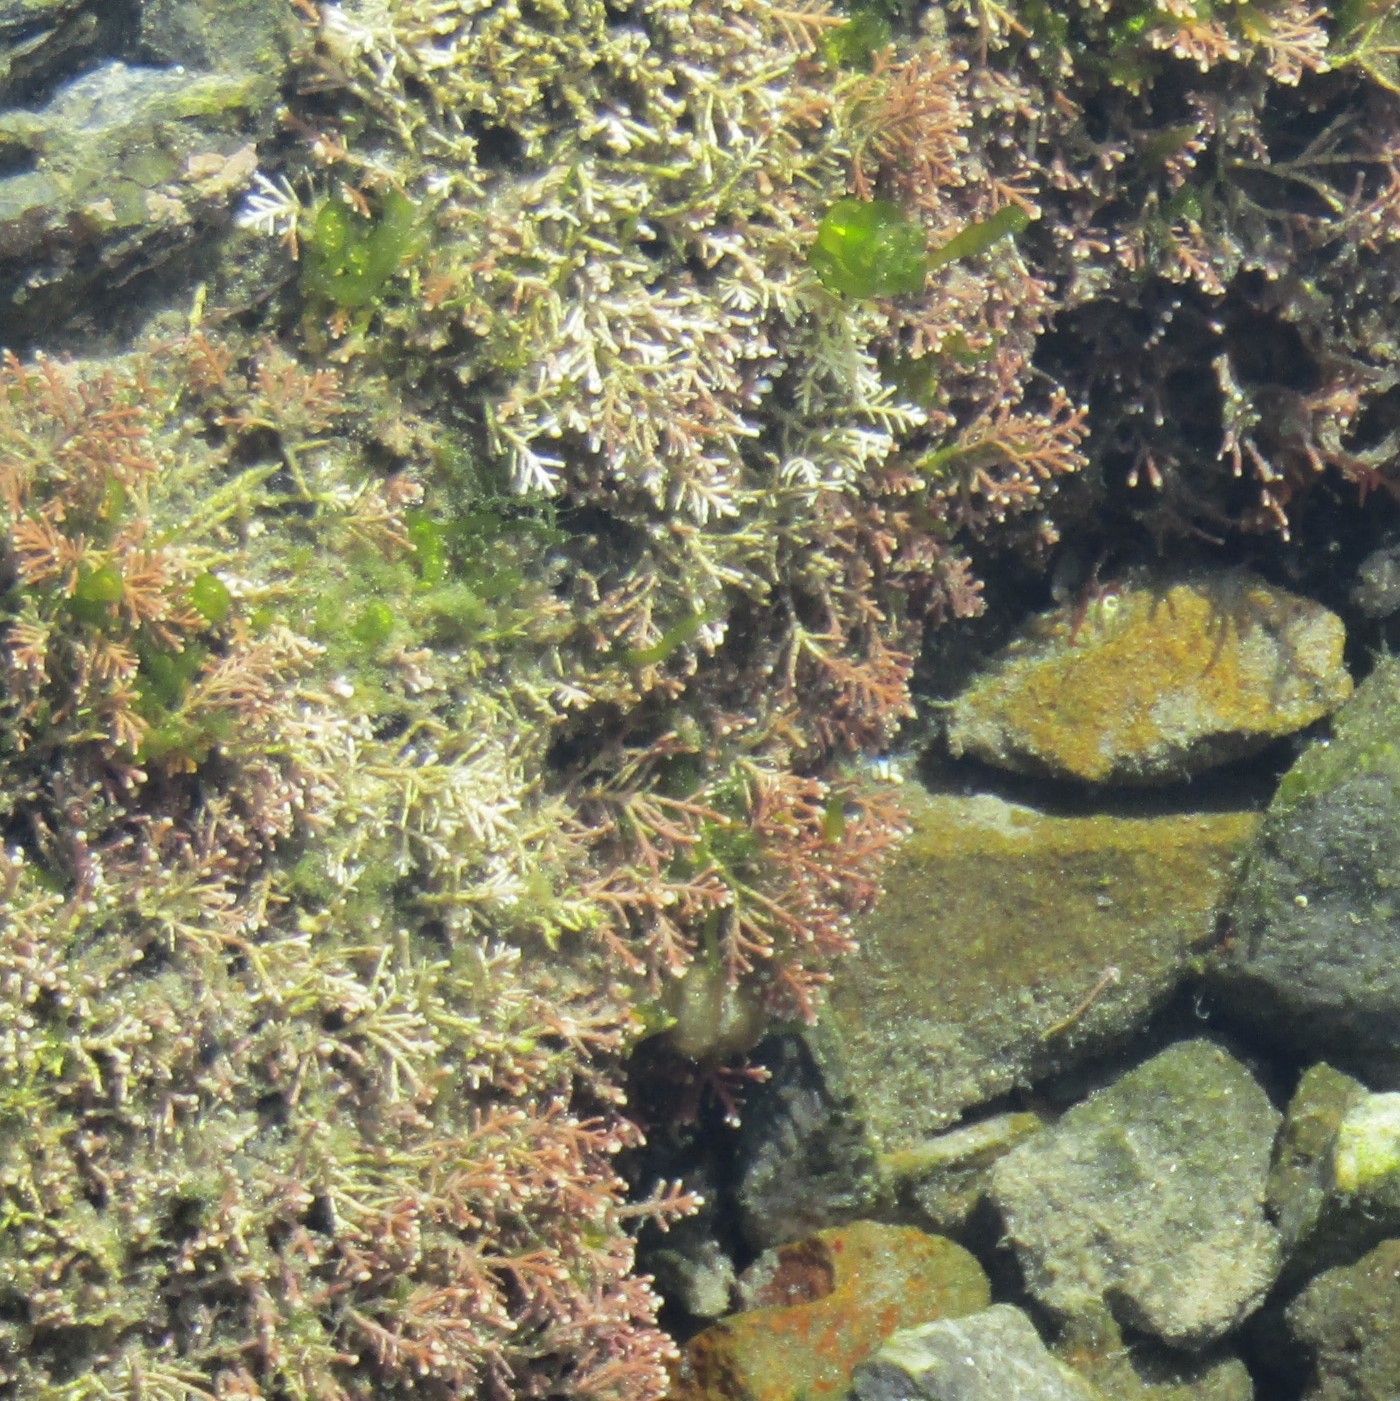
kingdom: Plantae
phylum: Rhodophyta
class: Florideophyceae
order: Corallinales
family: Corallinaceae
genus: Corallina
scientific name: Corallina officinalis
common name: Coral weed
